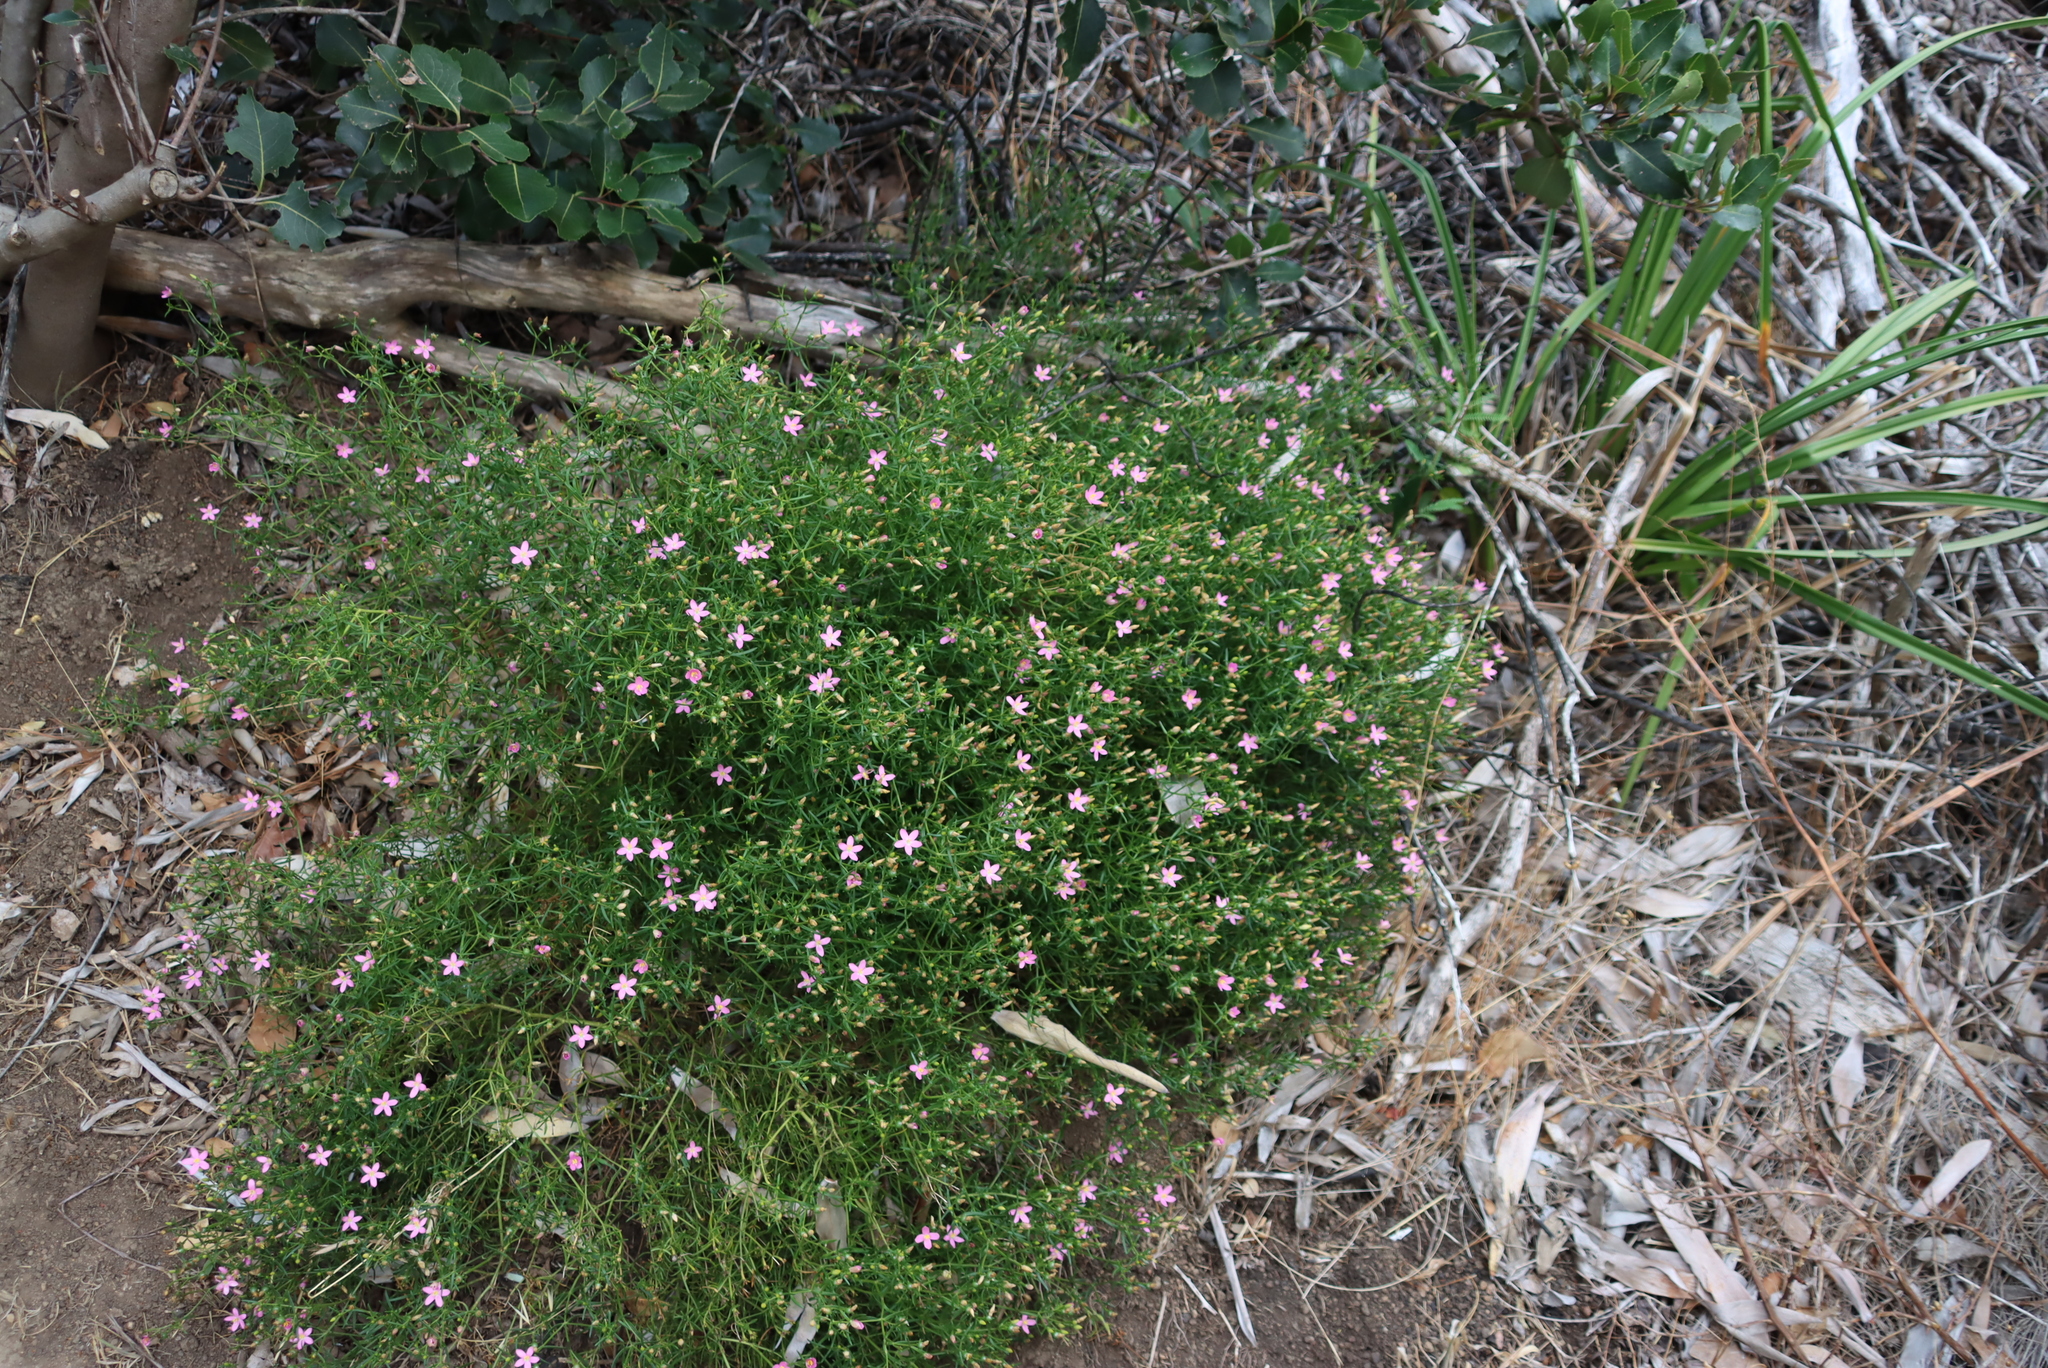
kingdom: Plantae
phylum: Tracheophyta
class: Magnoliopsida
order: Gentianales
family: Gentianaceae
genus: Chironia
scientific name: Chironia baccifera
